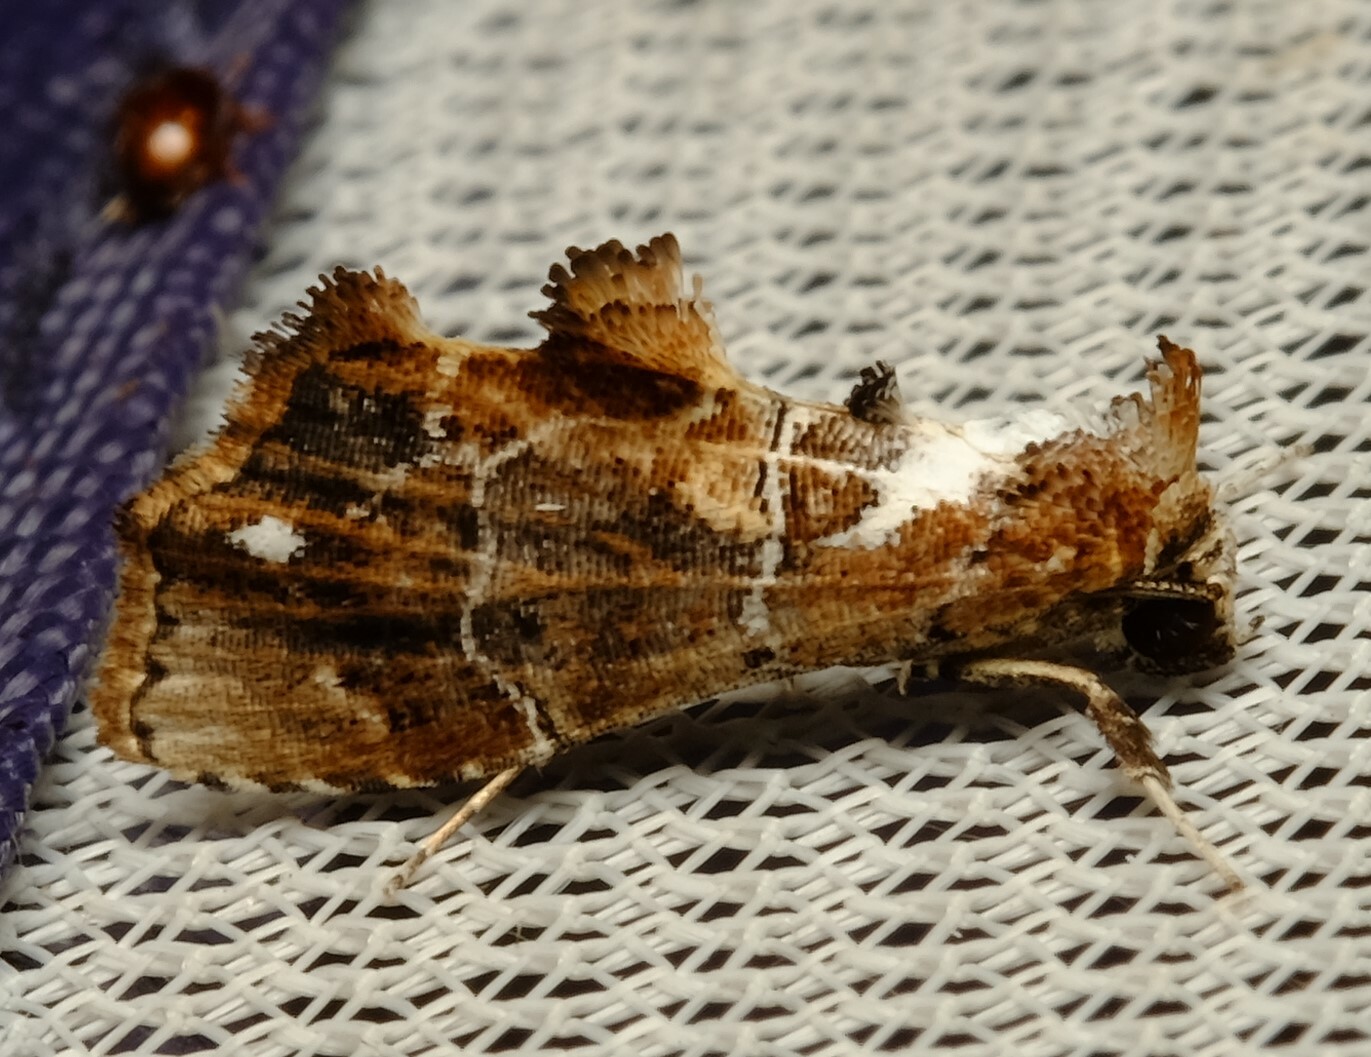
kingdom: Animalia
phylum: Arthropoda
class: Insecta
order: Lepidoptera
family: Erebidae
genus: Arrade
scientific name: Arrade leucocosmalis
